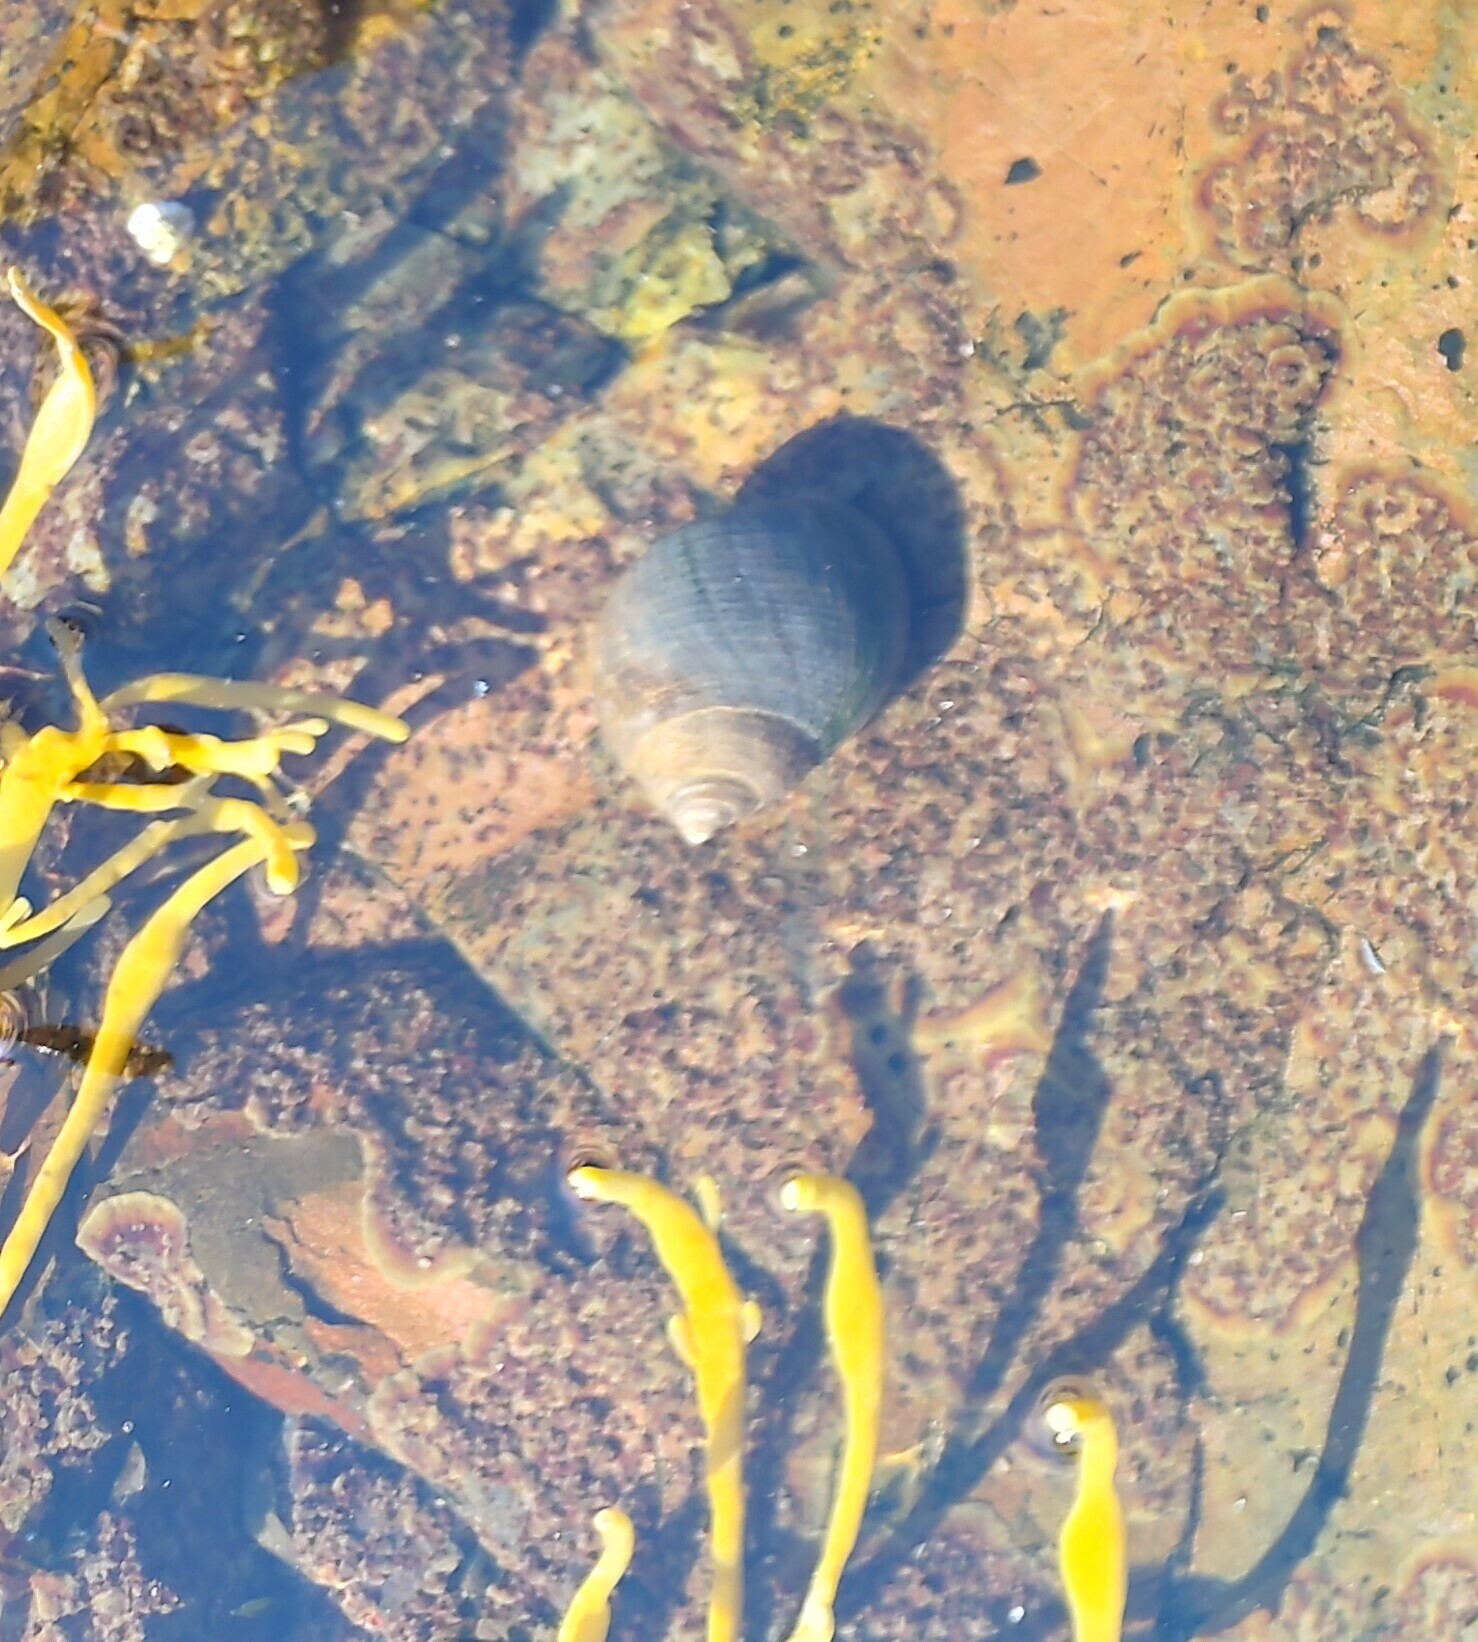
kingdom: Animalia
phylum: Mollusca
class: Gastropoda
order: Littorinimorpha
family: Littorinidae
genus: Littorina
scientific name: Littorina littorea
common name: Common periwinkle
